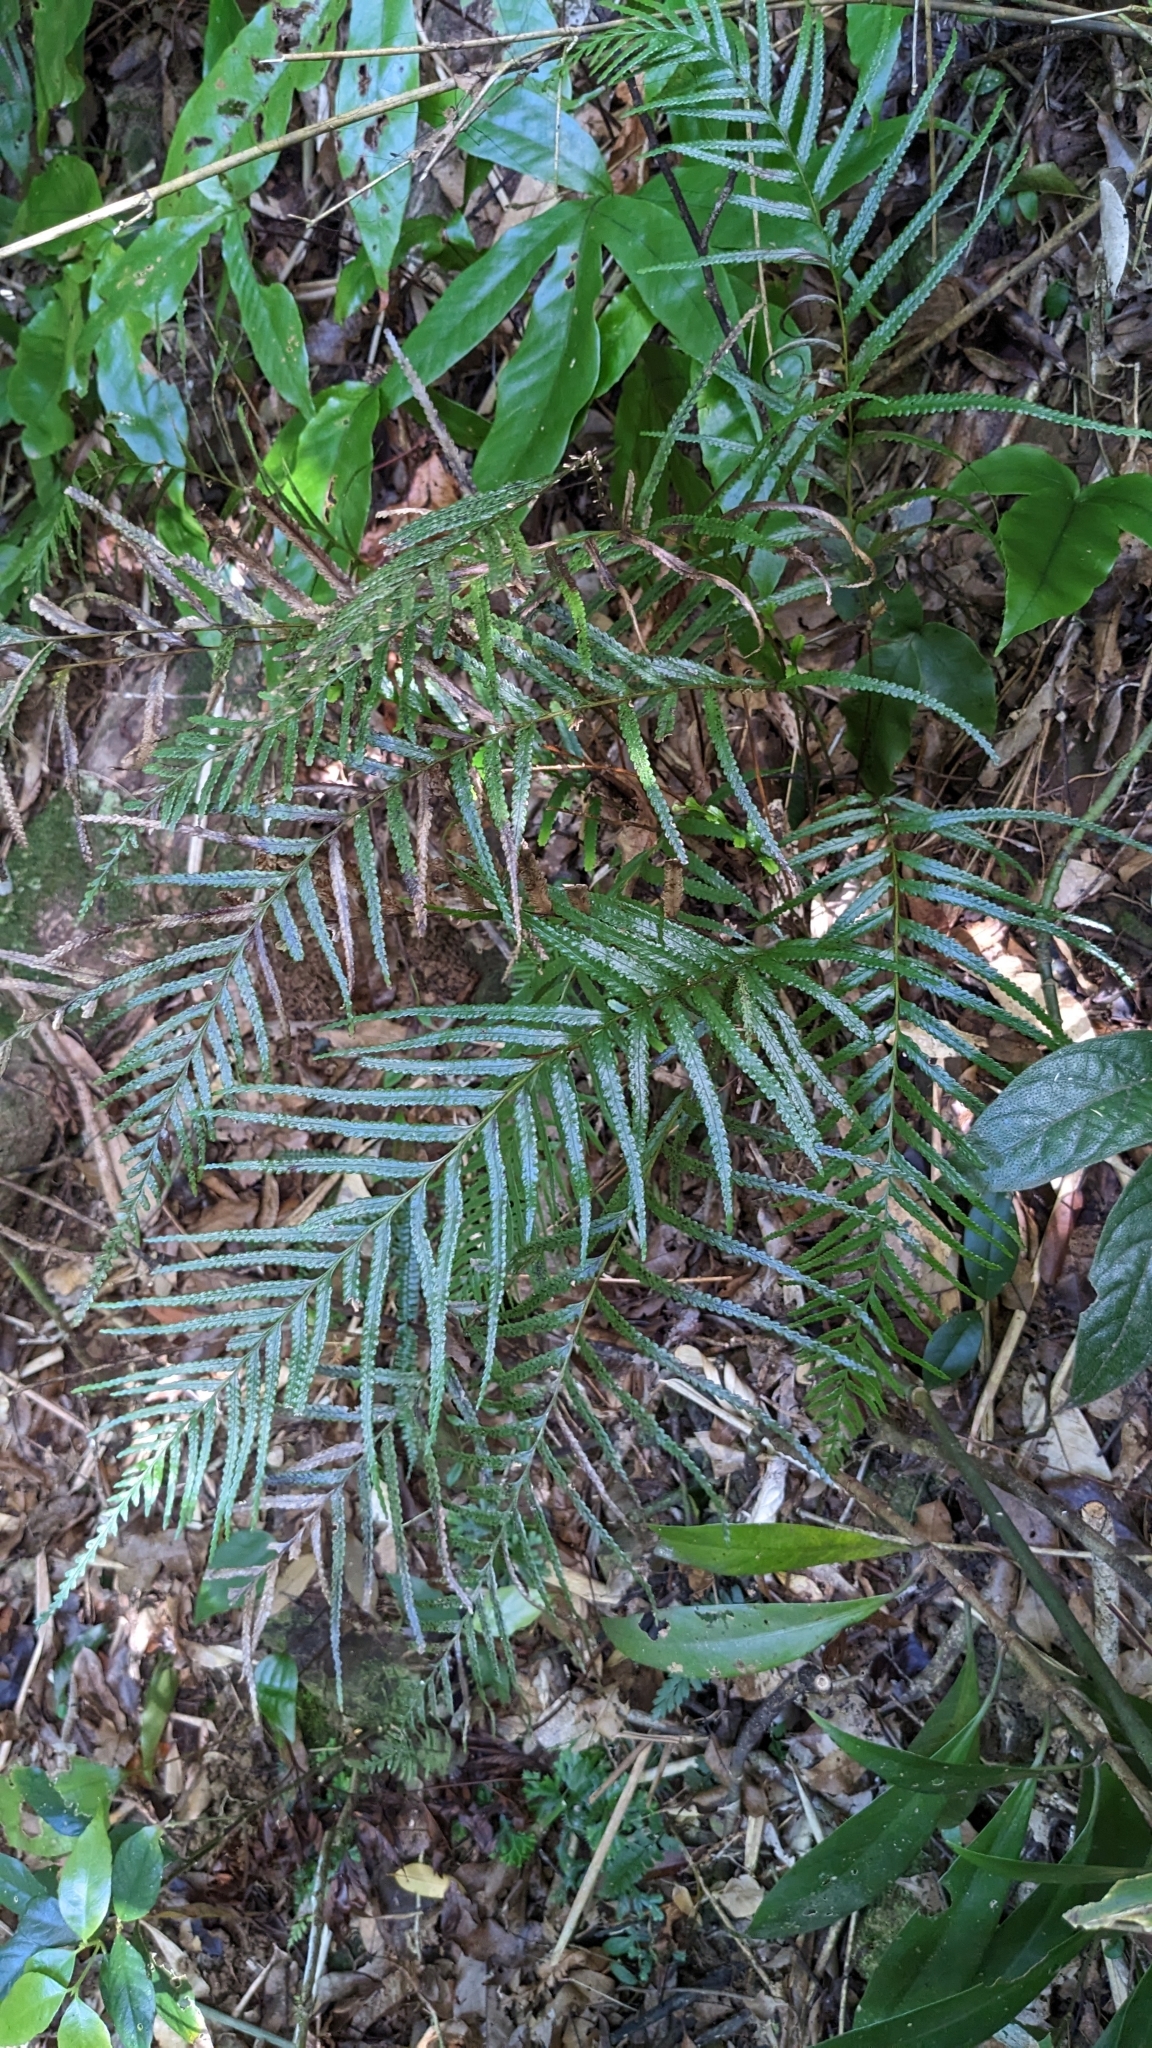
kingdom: Plantae
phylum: Tracheophyta
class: Polypodiopsida
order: Polypodiales
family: Lindsaeaceae
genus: Tapeinidium
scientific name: Tapeinidium pinnatum
